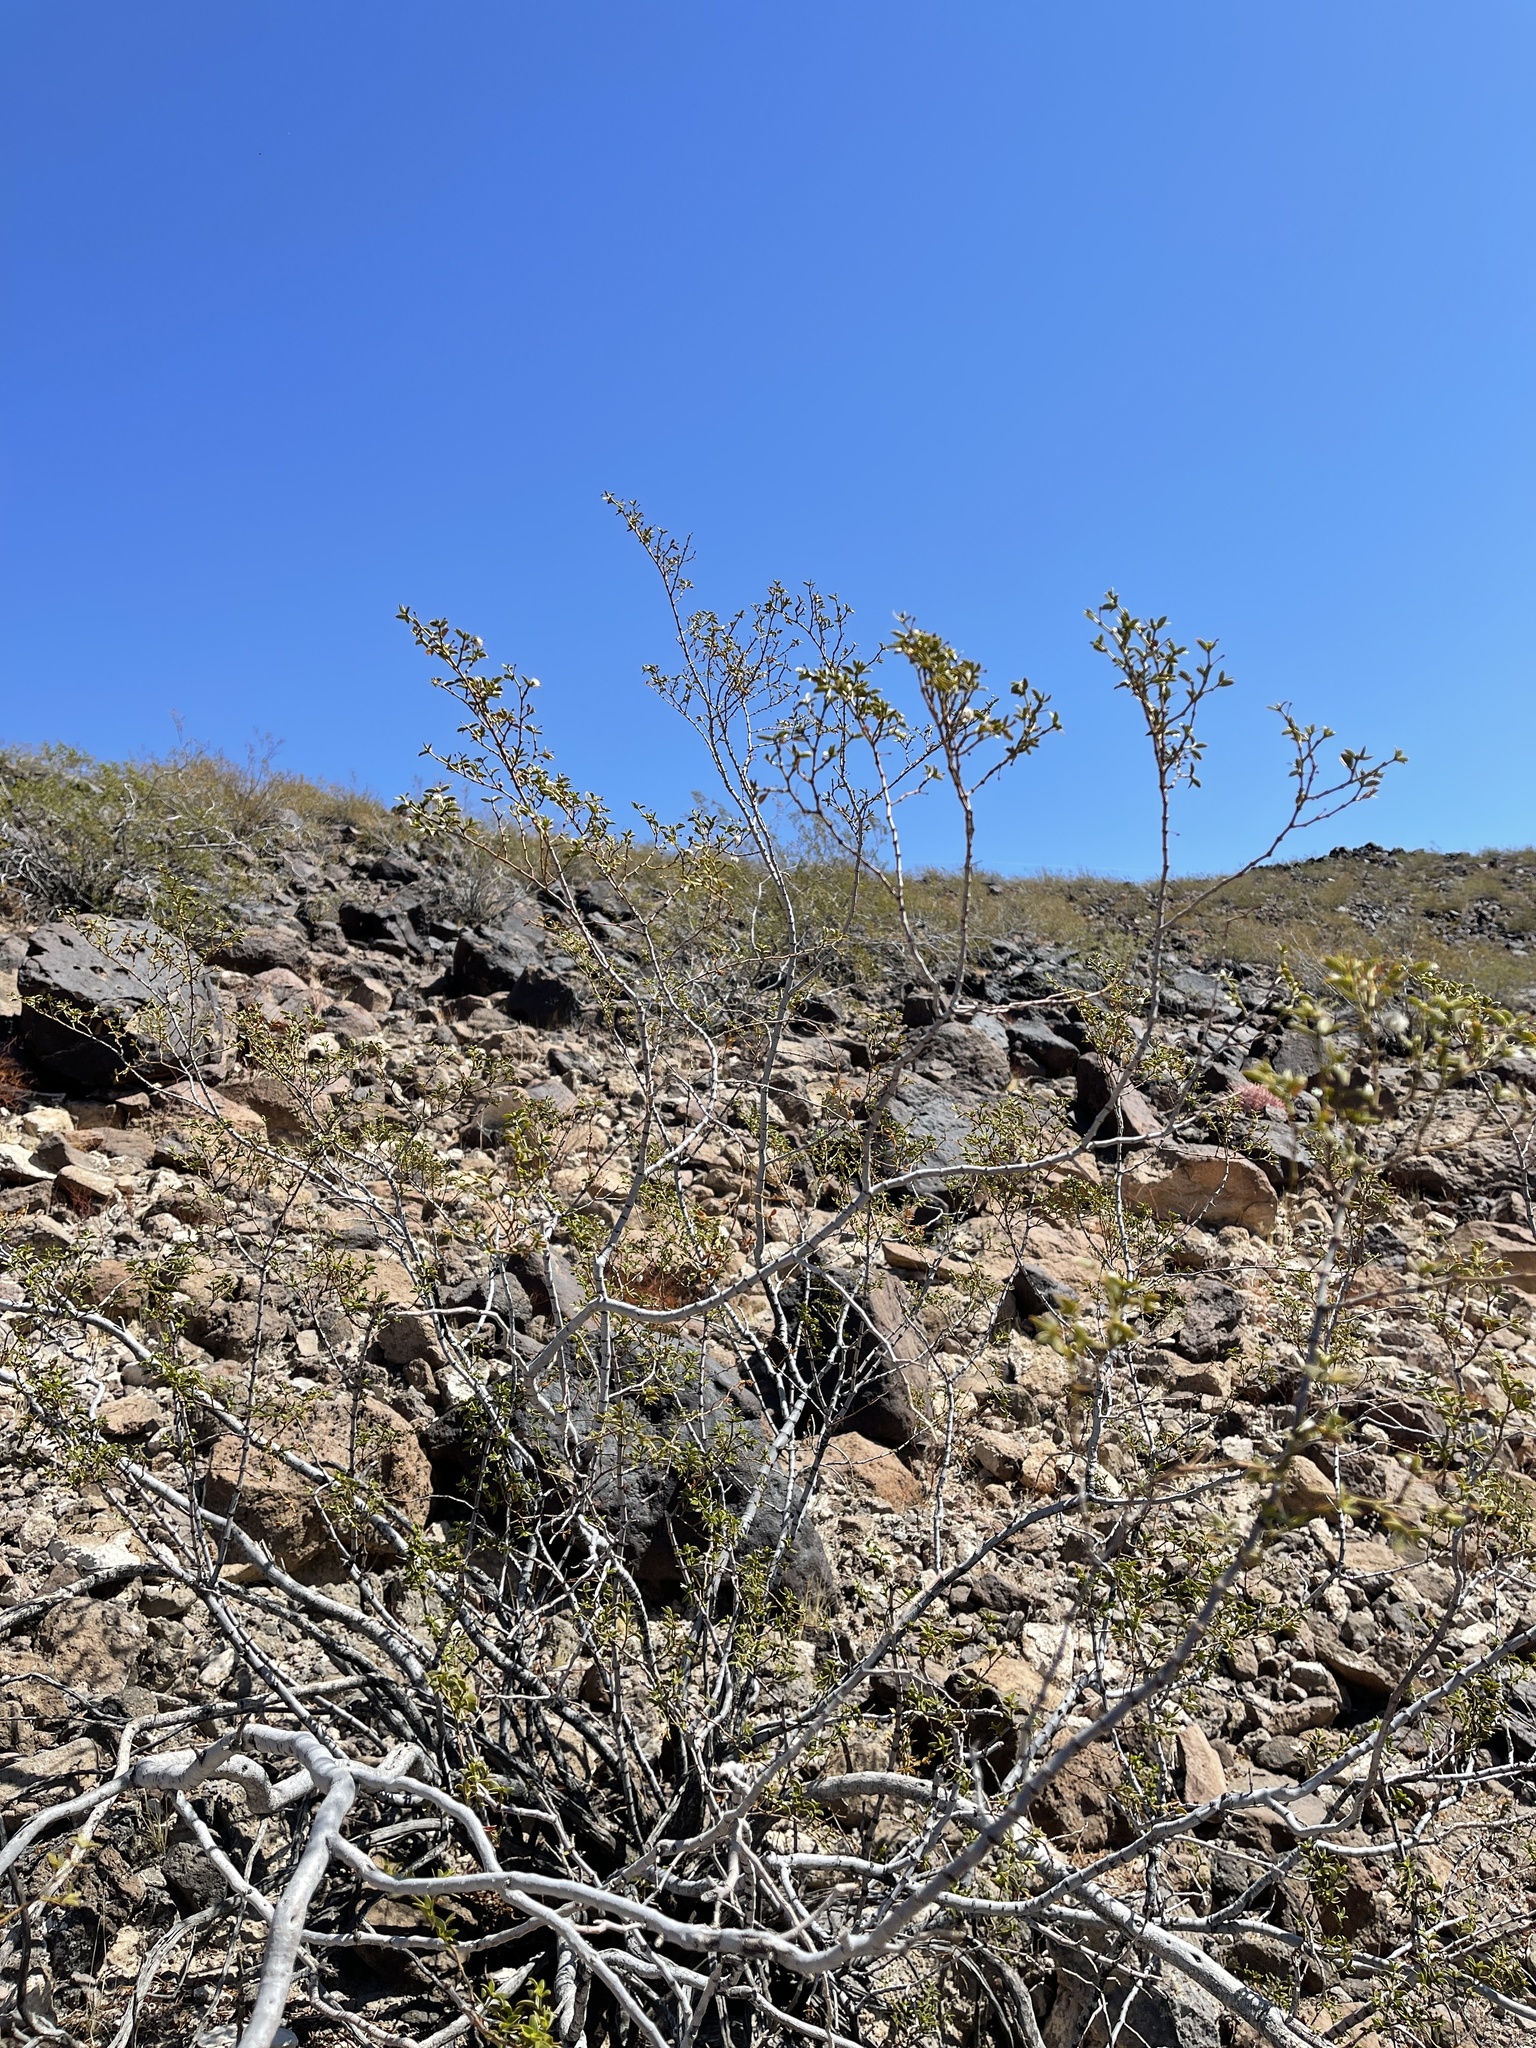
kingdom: Plantae
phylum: Tracheophyta
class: Magnoliopsida
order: Zygophyllales
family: Zygophyllaceae
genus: Larrea
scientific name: Larrea tridentata
